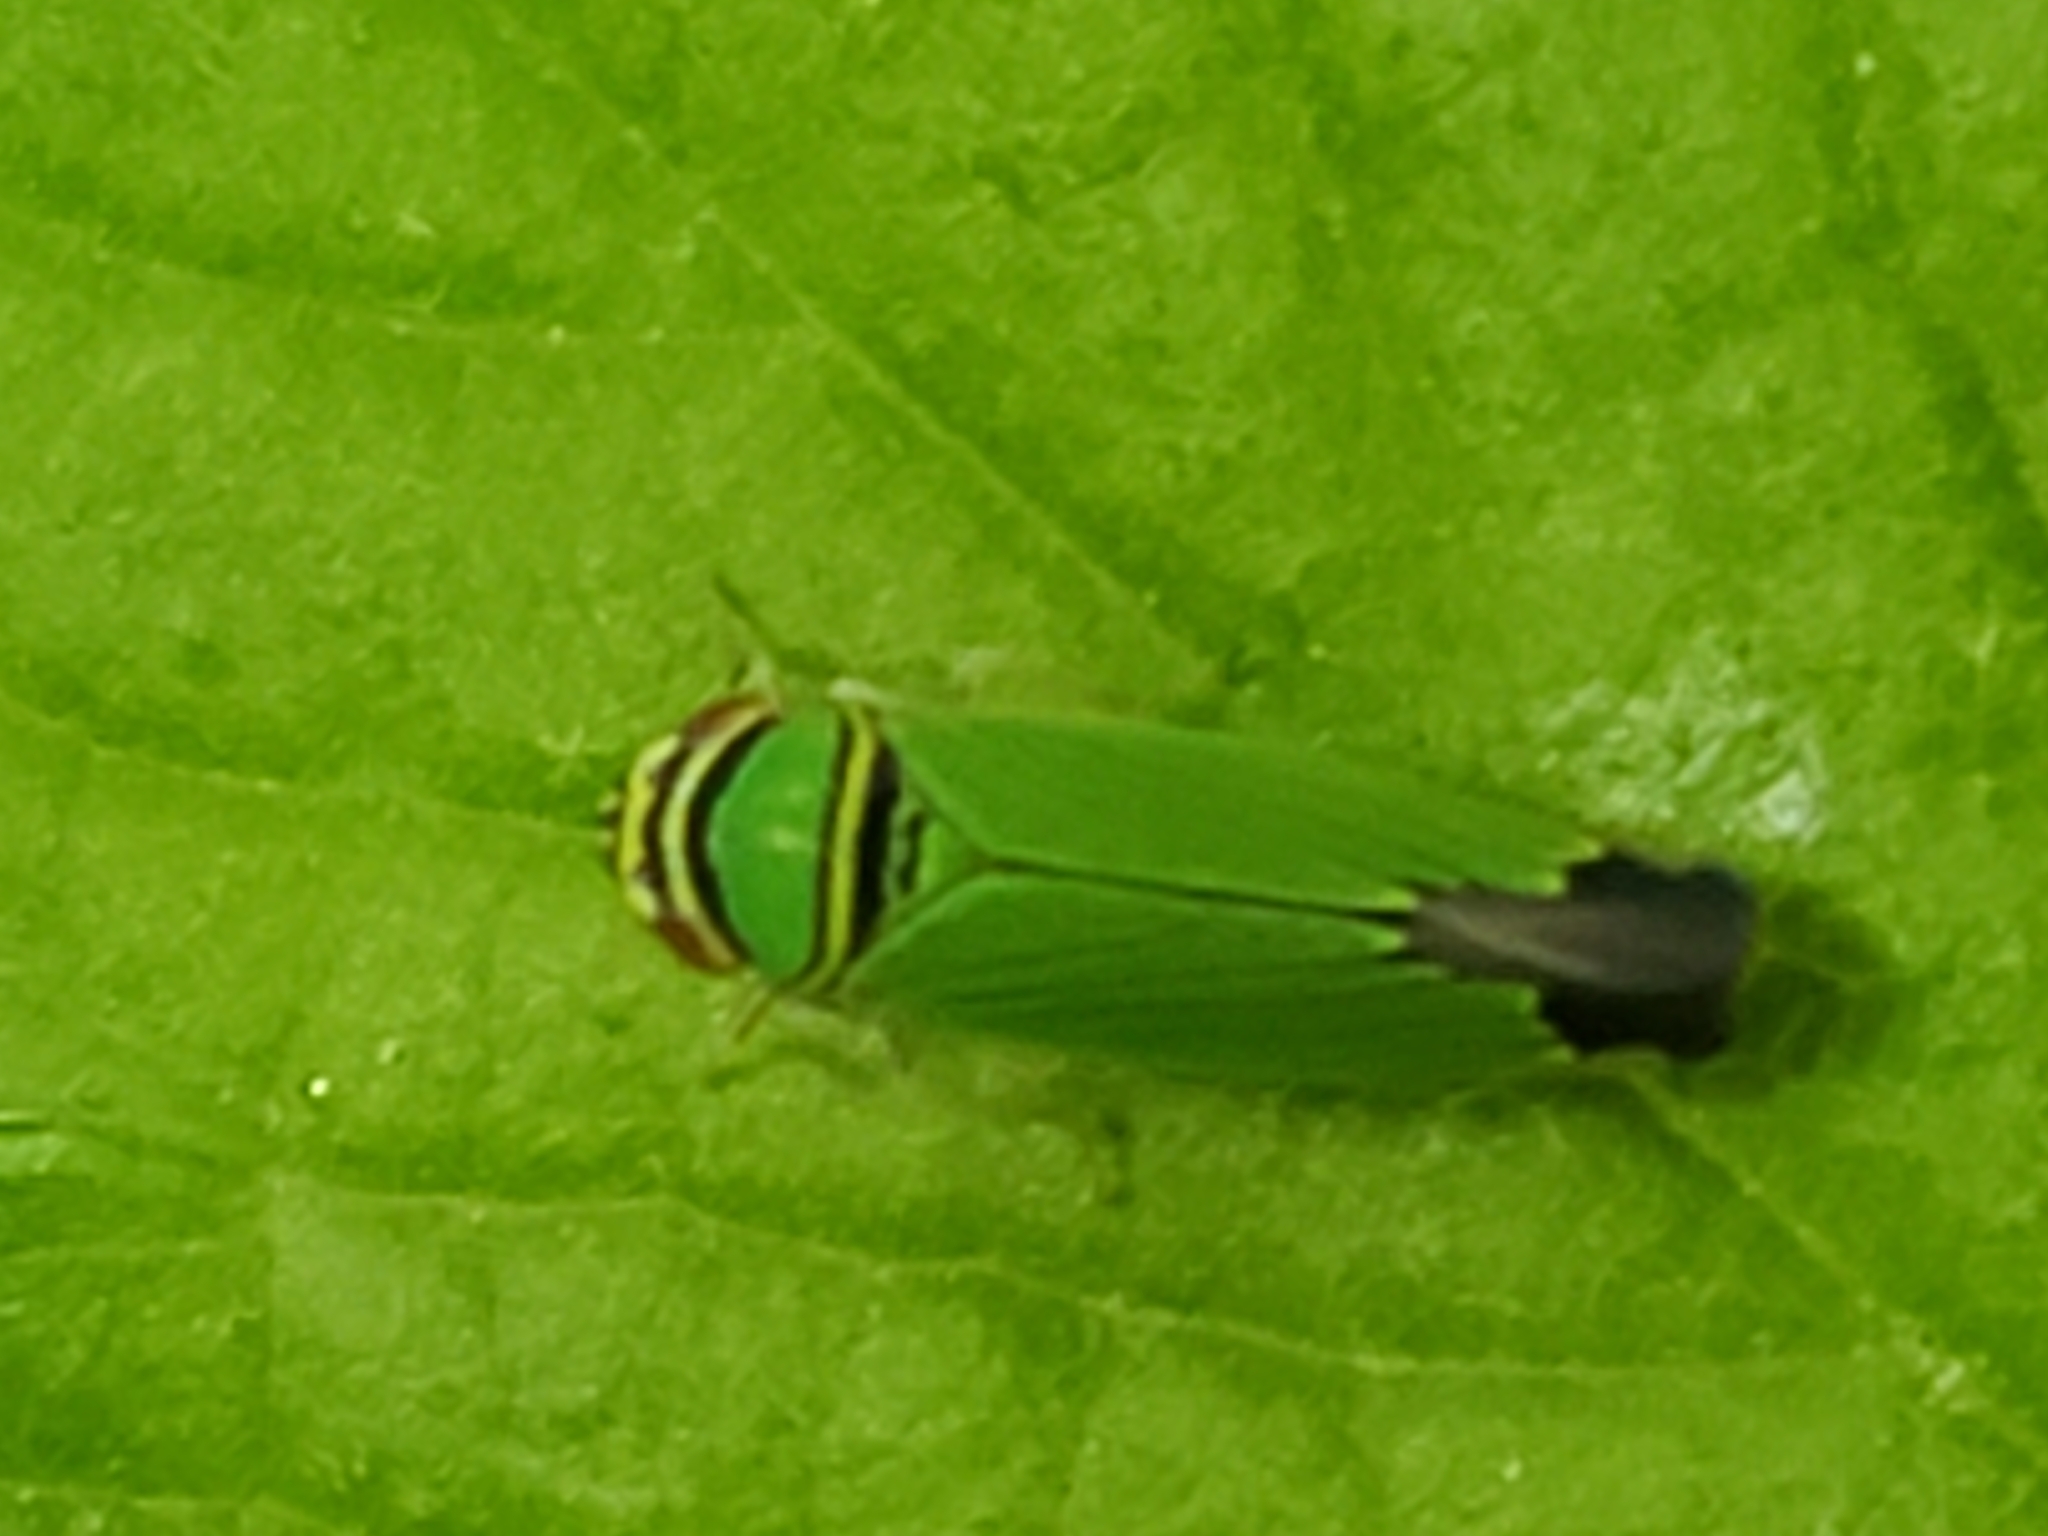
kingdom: Animalia
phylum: Arthropoda
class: Insecta
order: Hemiptera
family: Cicadellidae
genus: Tylozygus
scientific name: Tylozygus geometricus
